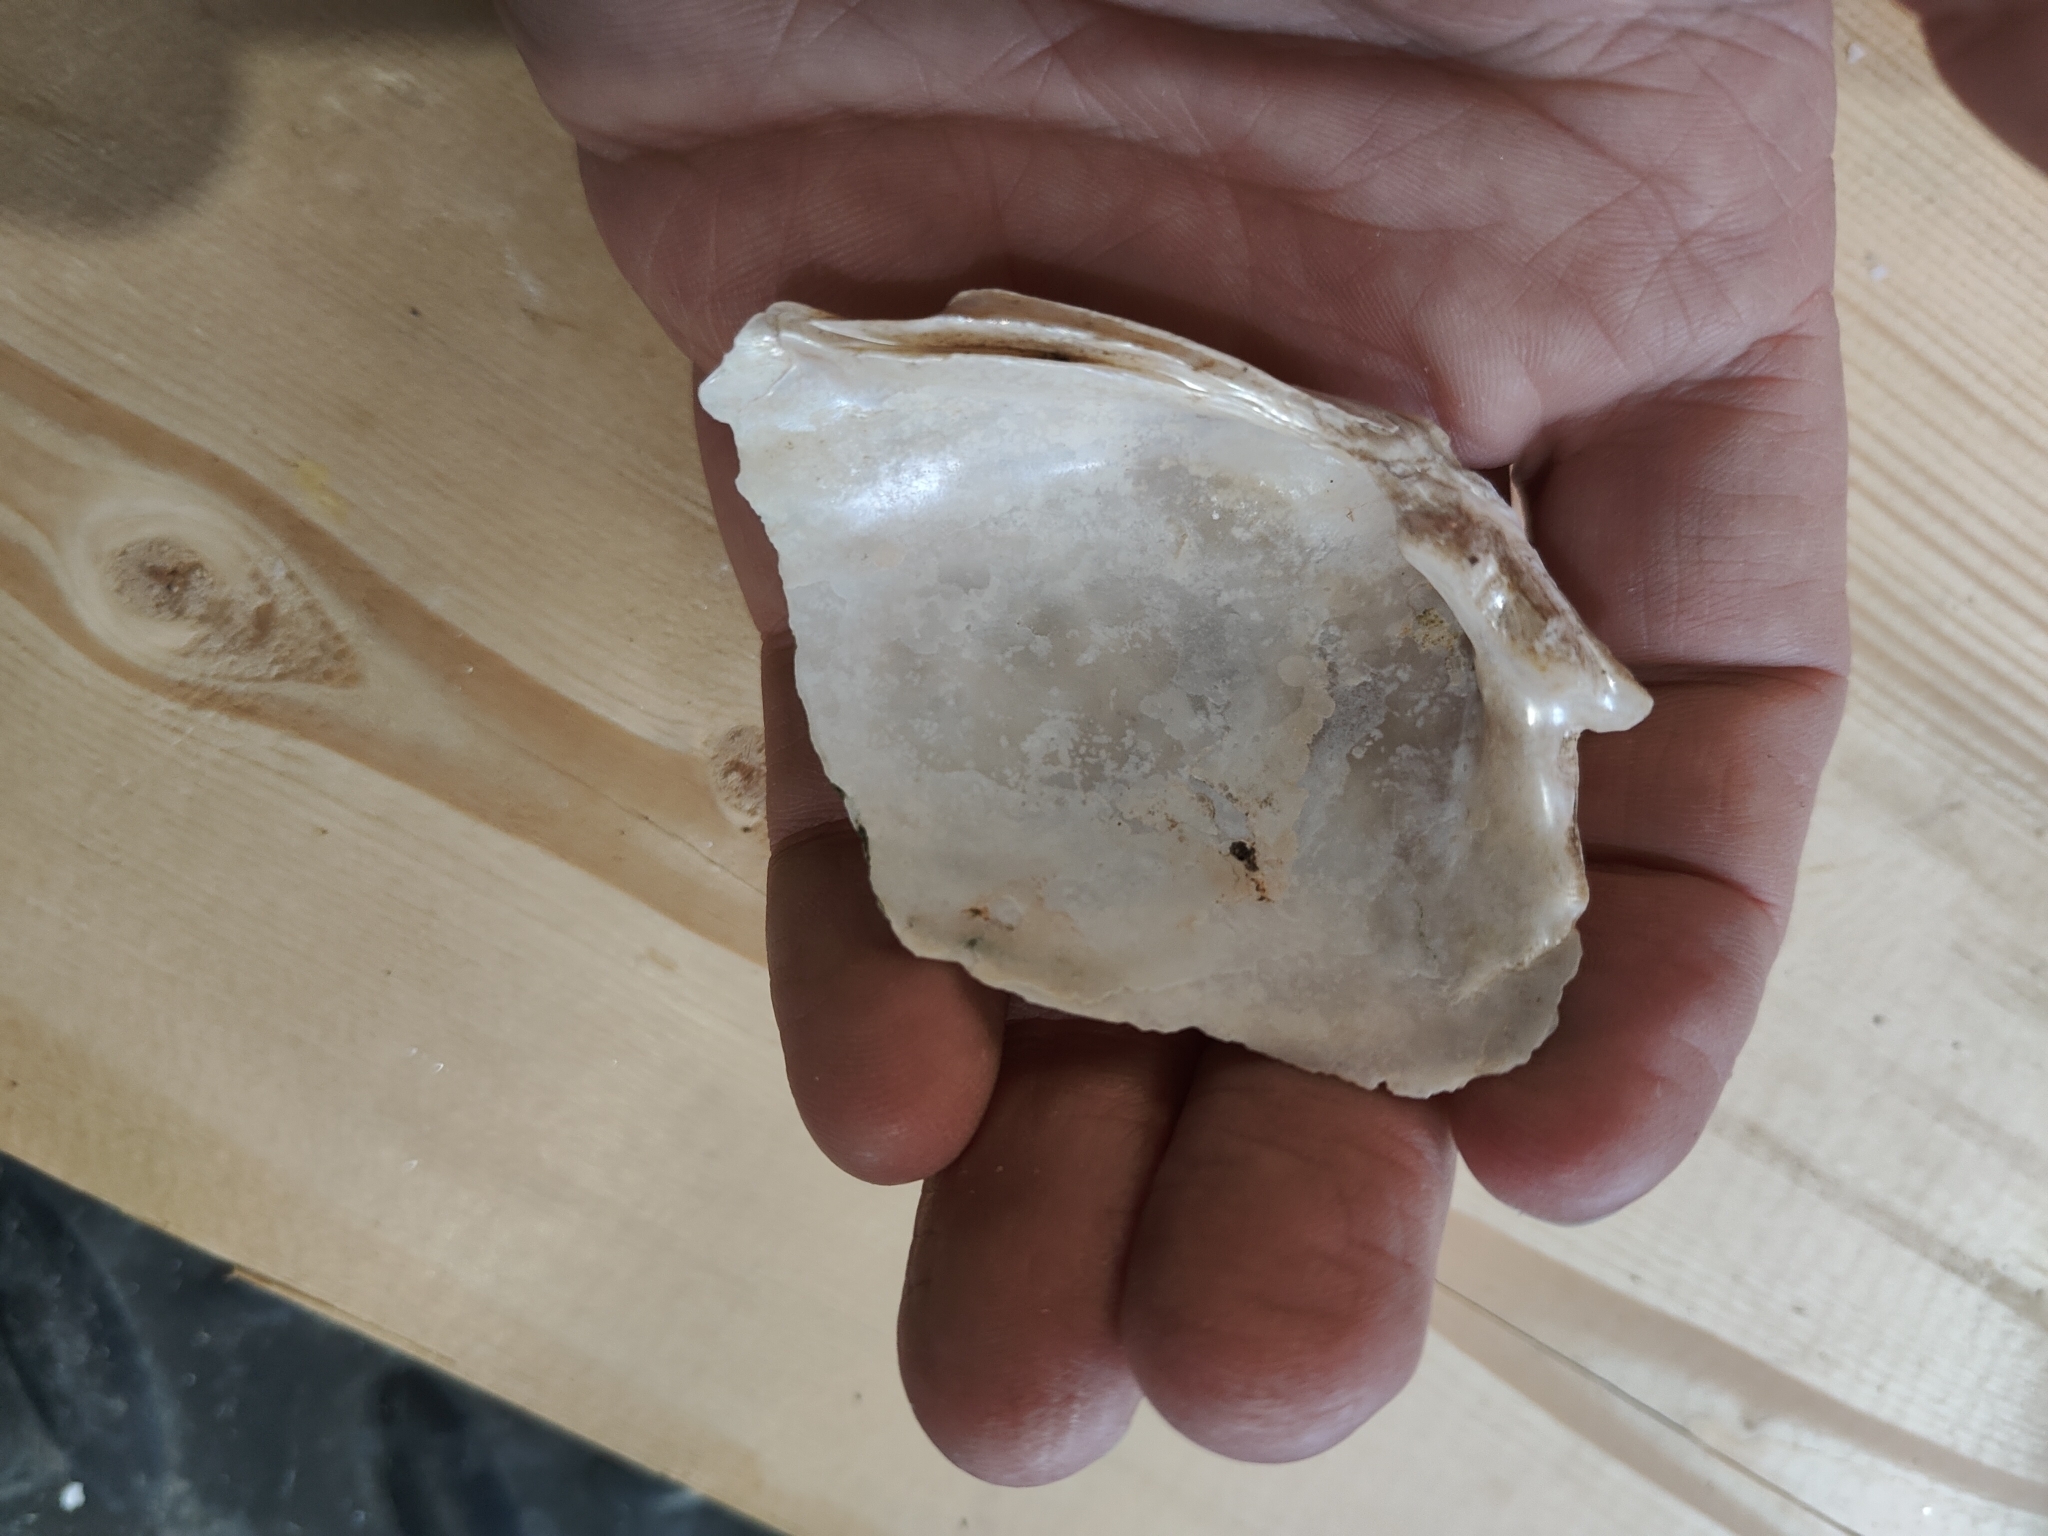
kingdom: Animalia
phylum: Mollusca
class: Bivalvia
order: Unionida
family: Unionidae
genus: Lampsilis
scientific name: Lampsilis cardium
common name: Plain pocketbook
